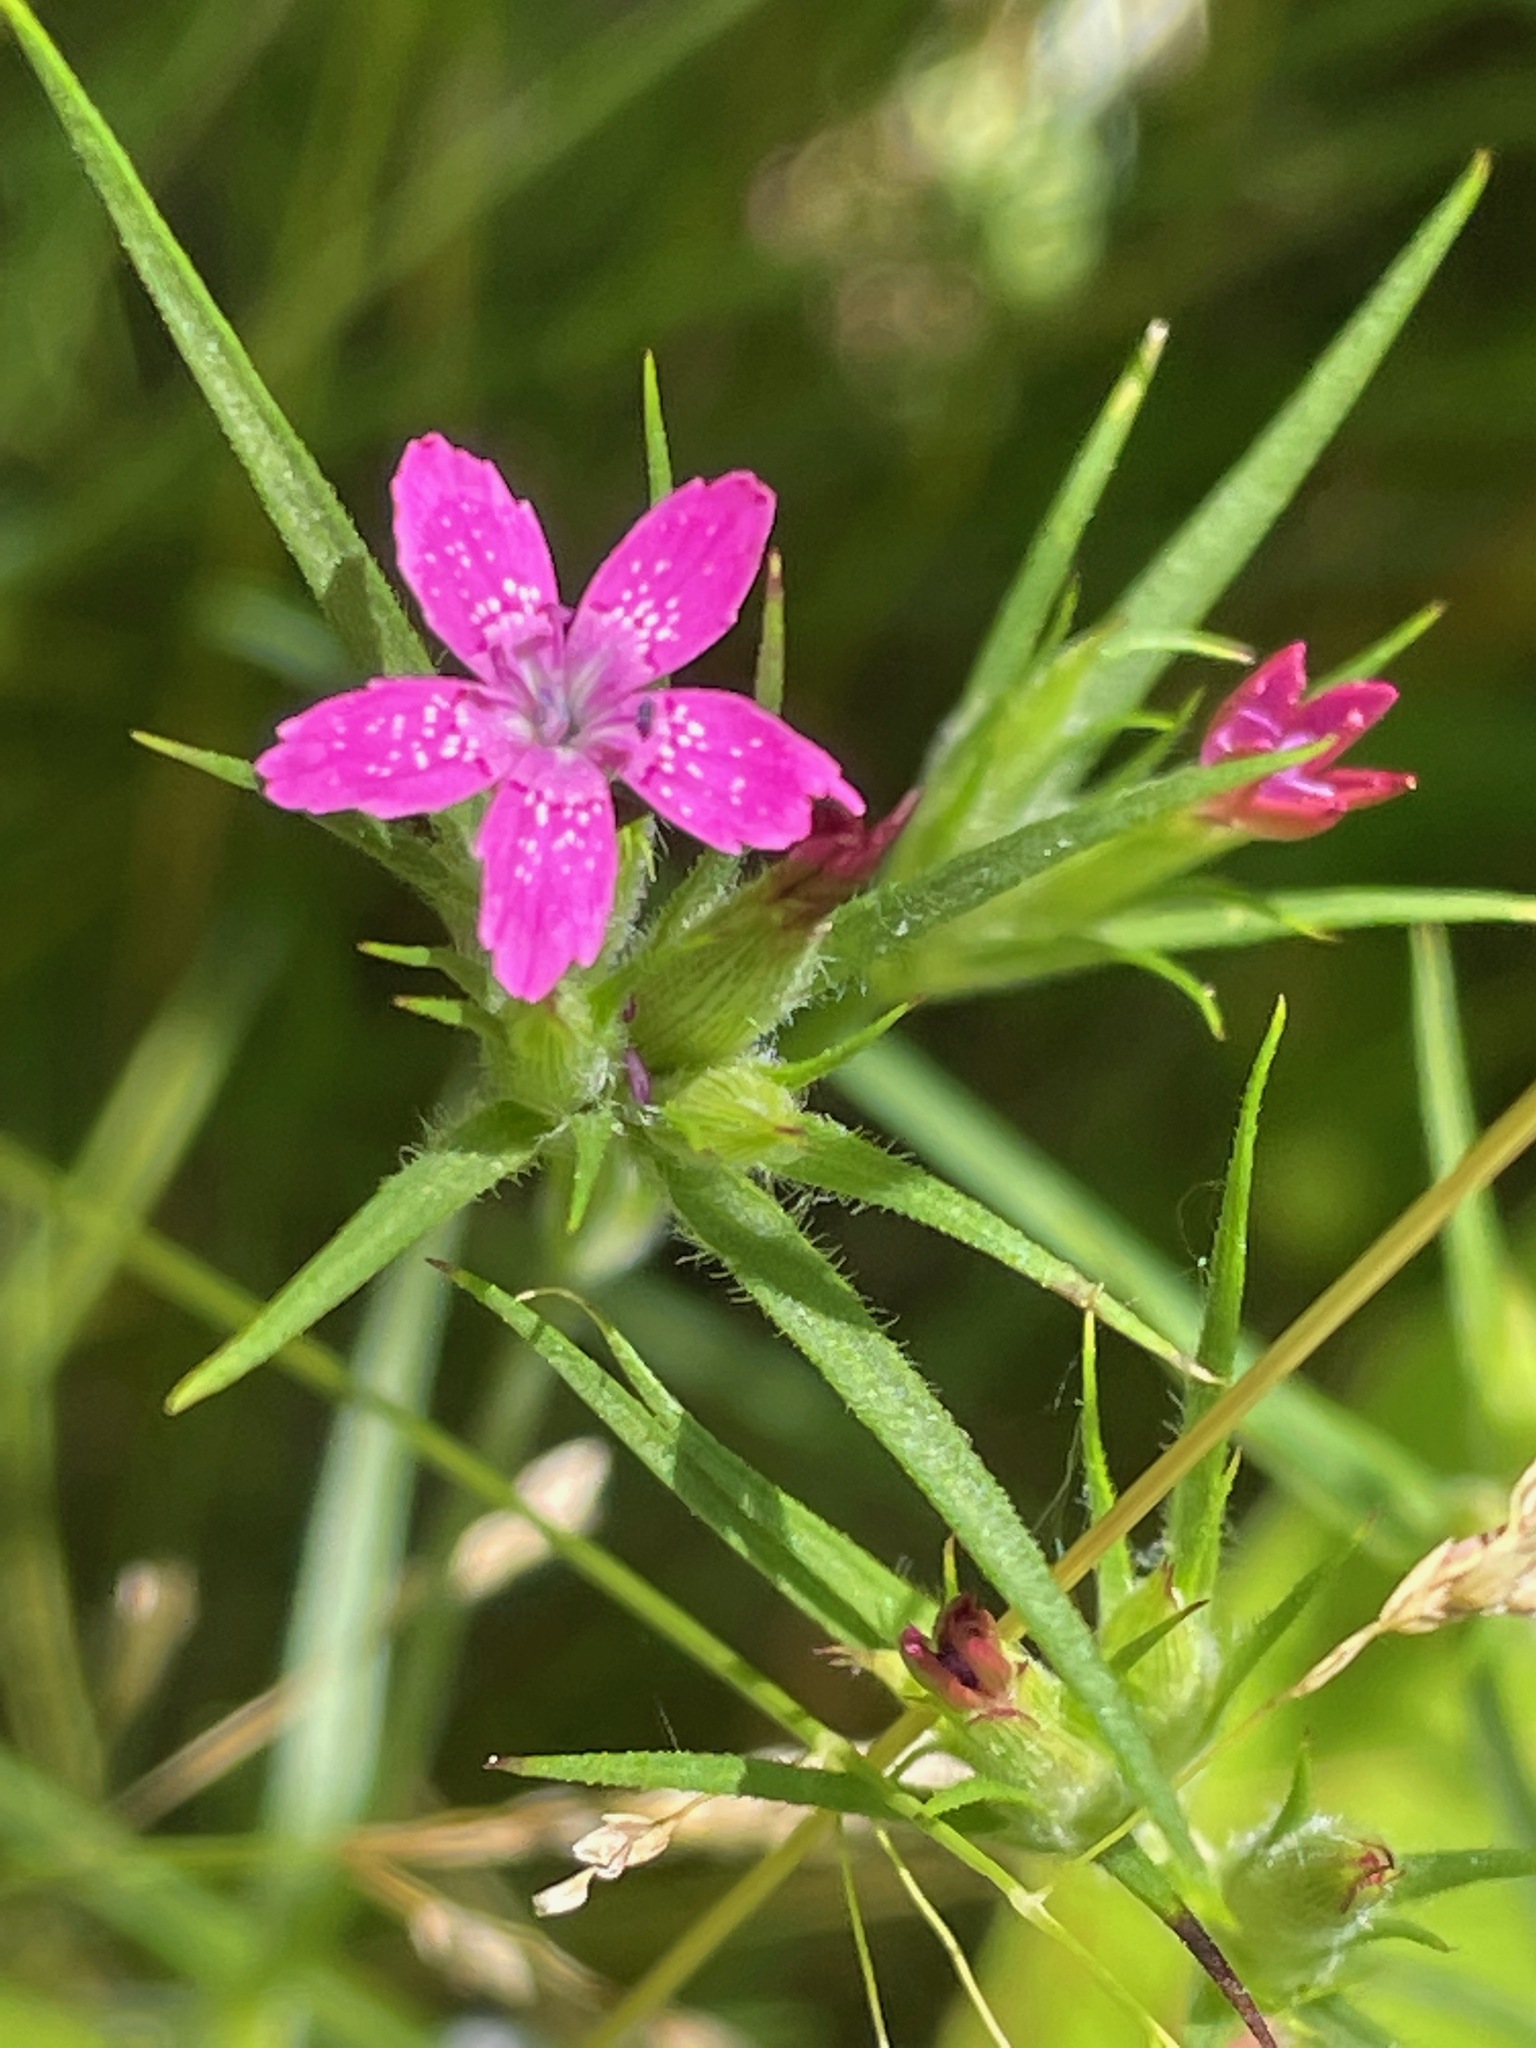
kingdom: Plantae
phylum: Tracheophyta
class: Magnoliopsida
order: Caryophyllales
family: Caryophyllaceae
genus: Dianthus
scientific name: Dianthus armeria
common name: Deptford pink
